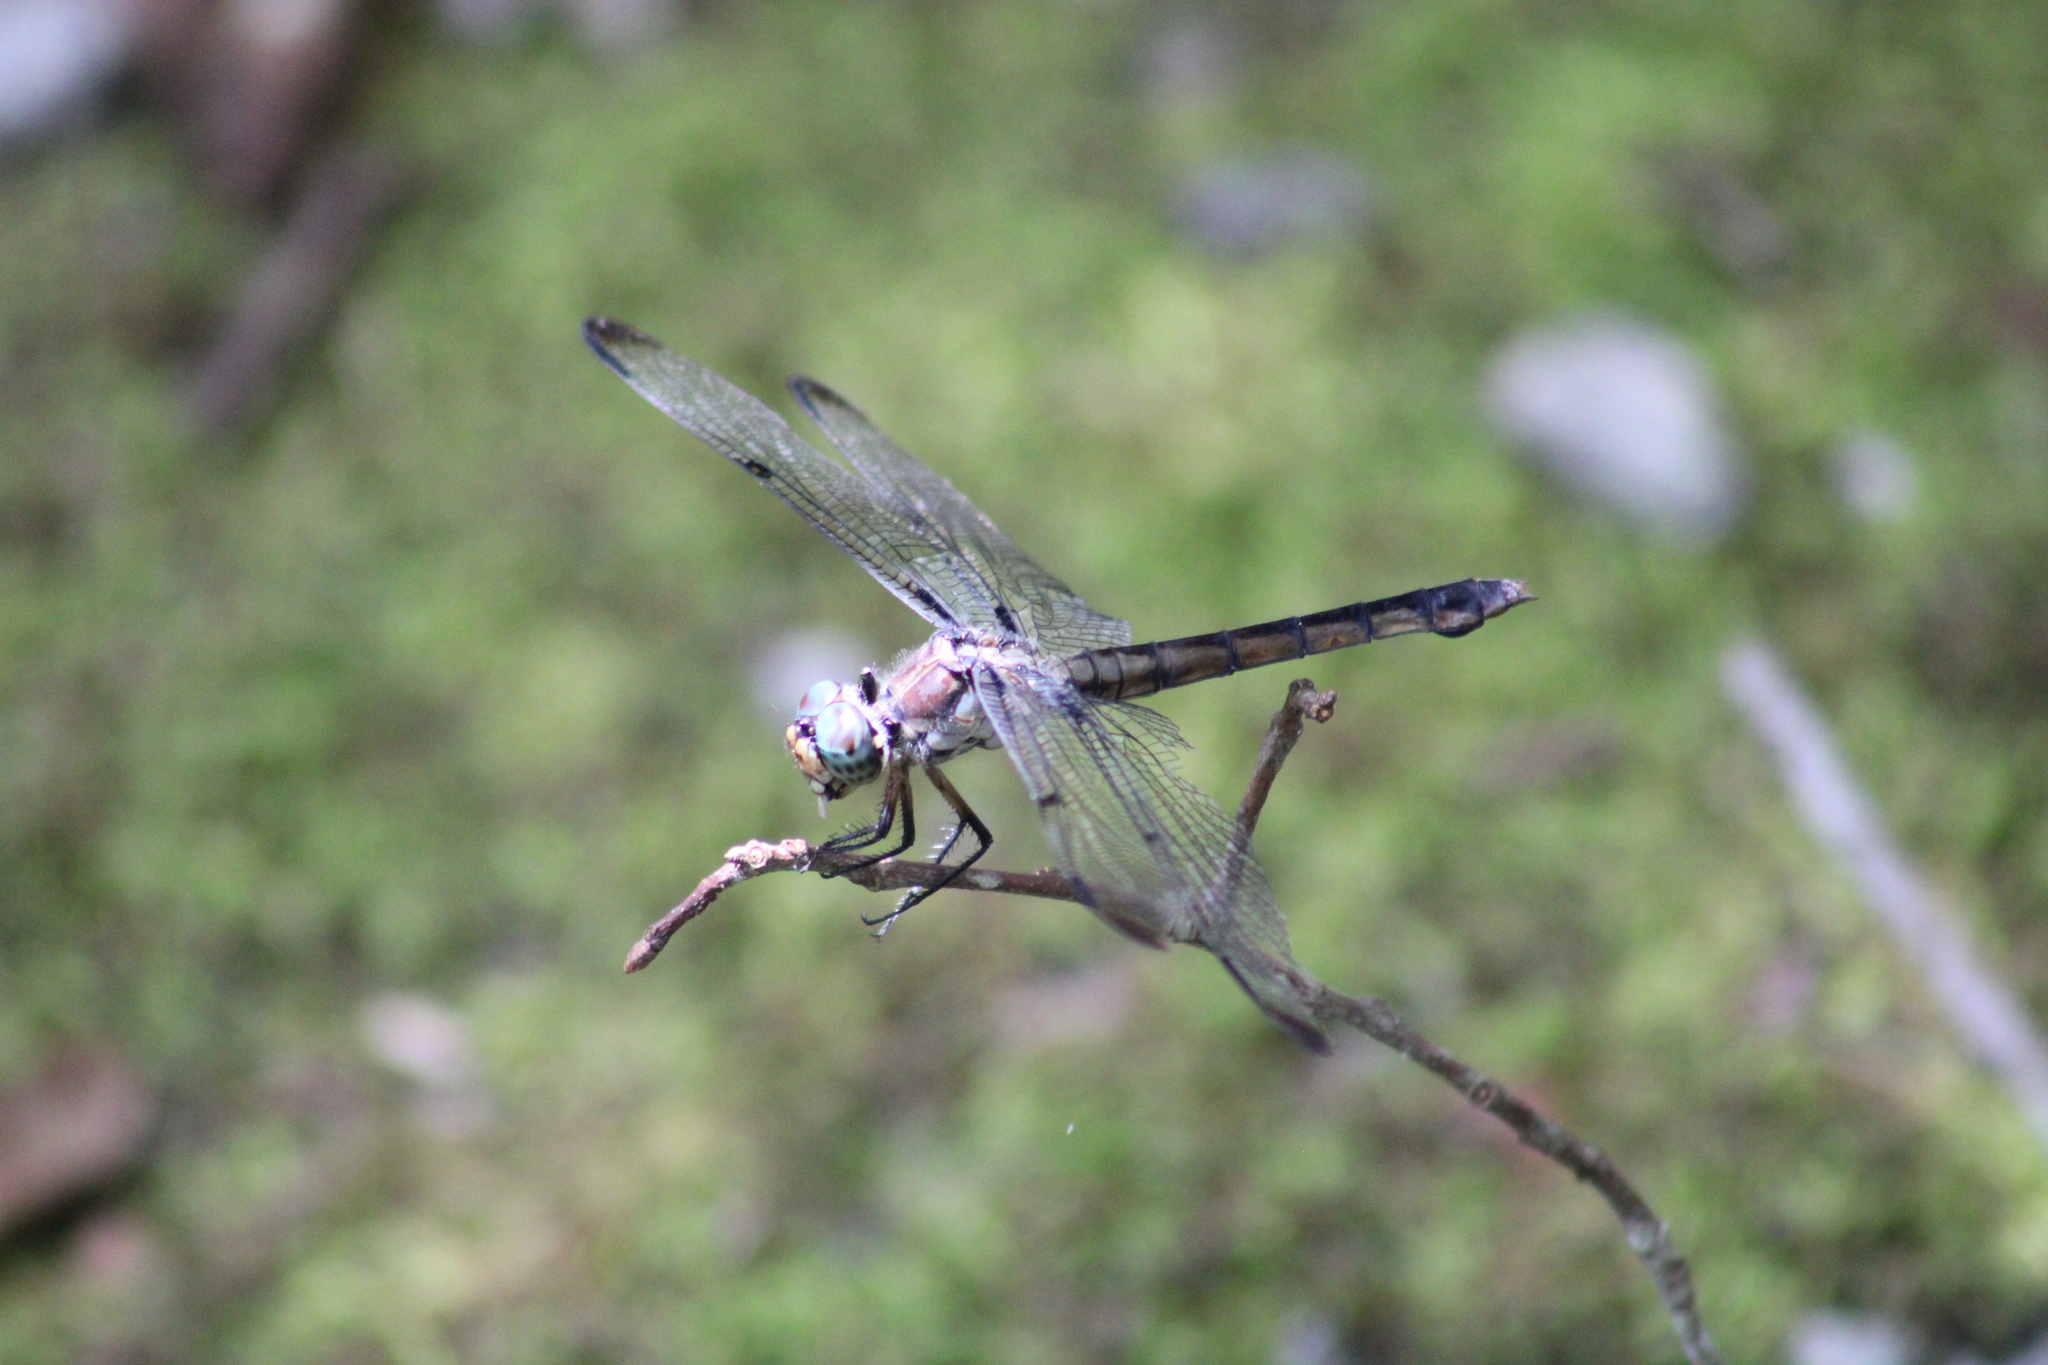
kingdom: Animalia
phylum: Arthropoda
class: Insecta
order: Odonata
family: Libellulidae
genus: Libellula
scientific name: Libellula vibrans
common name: Great blue skimmer
